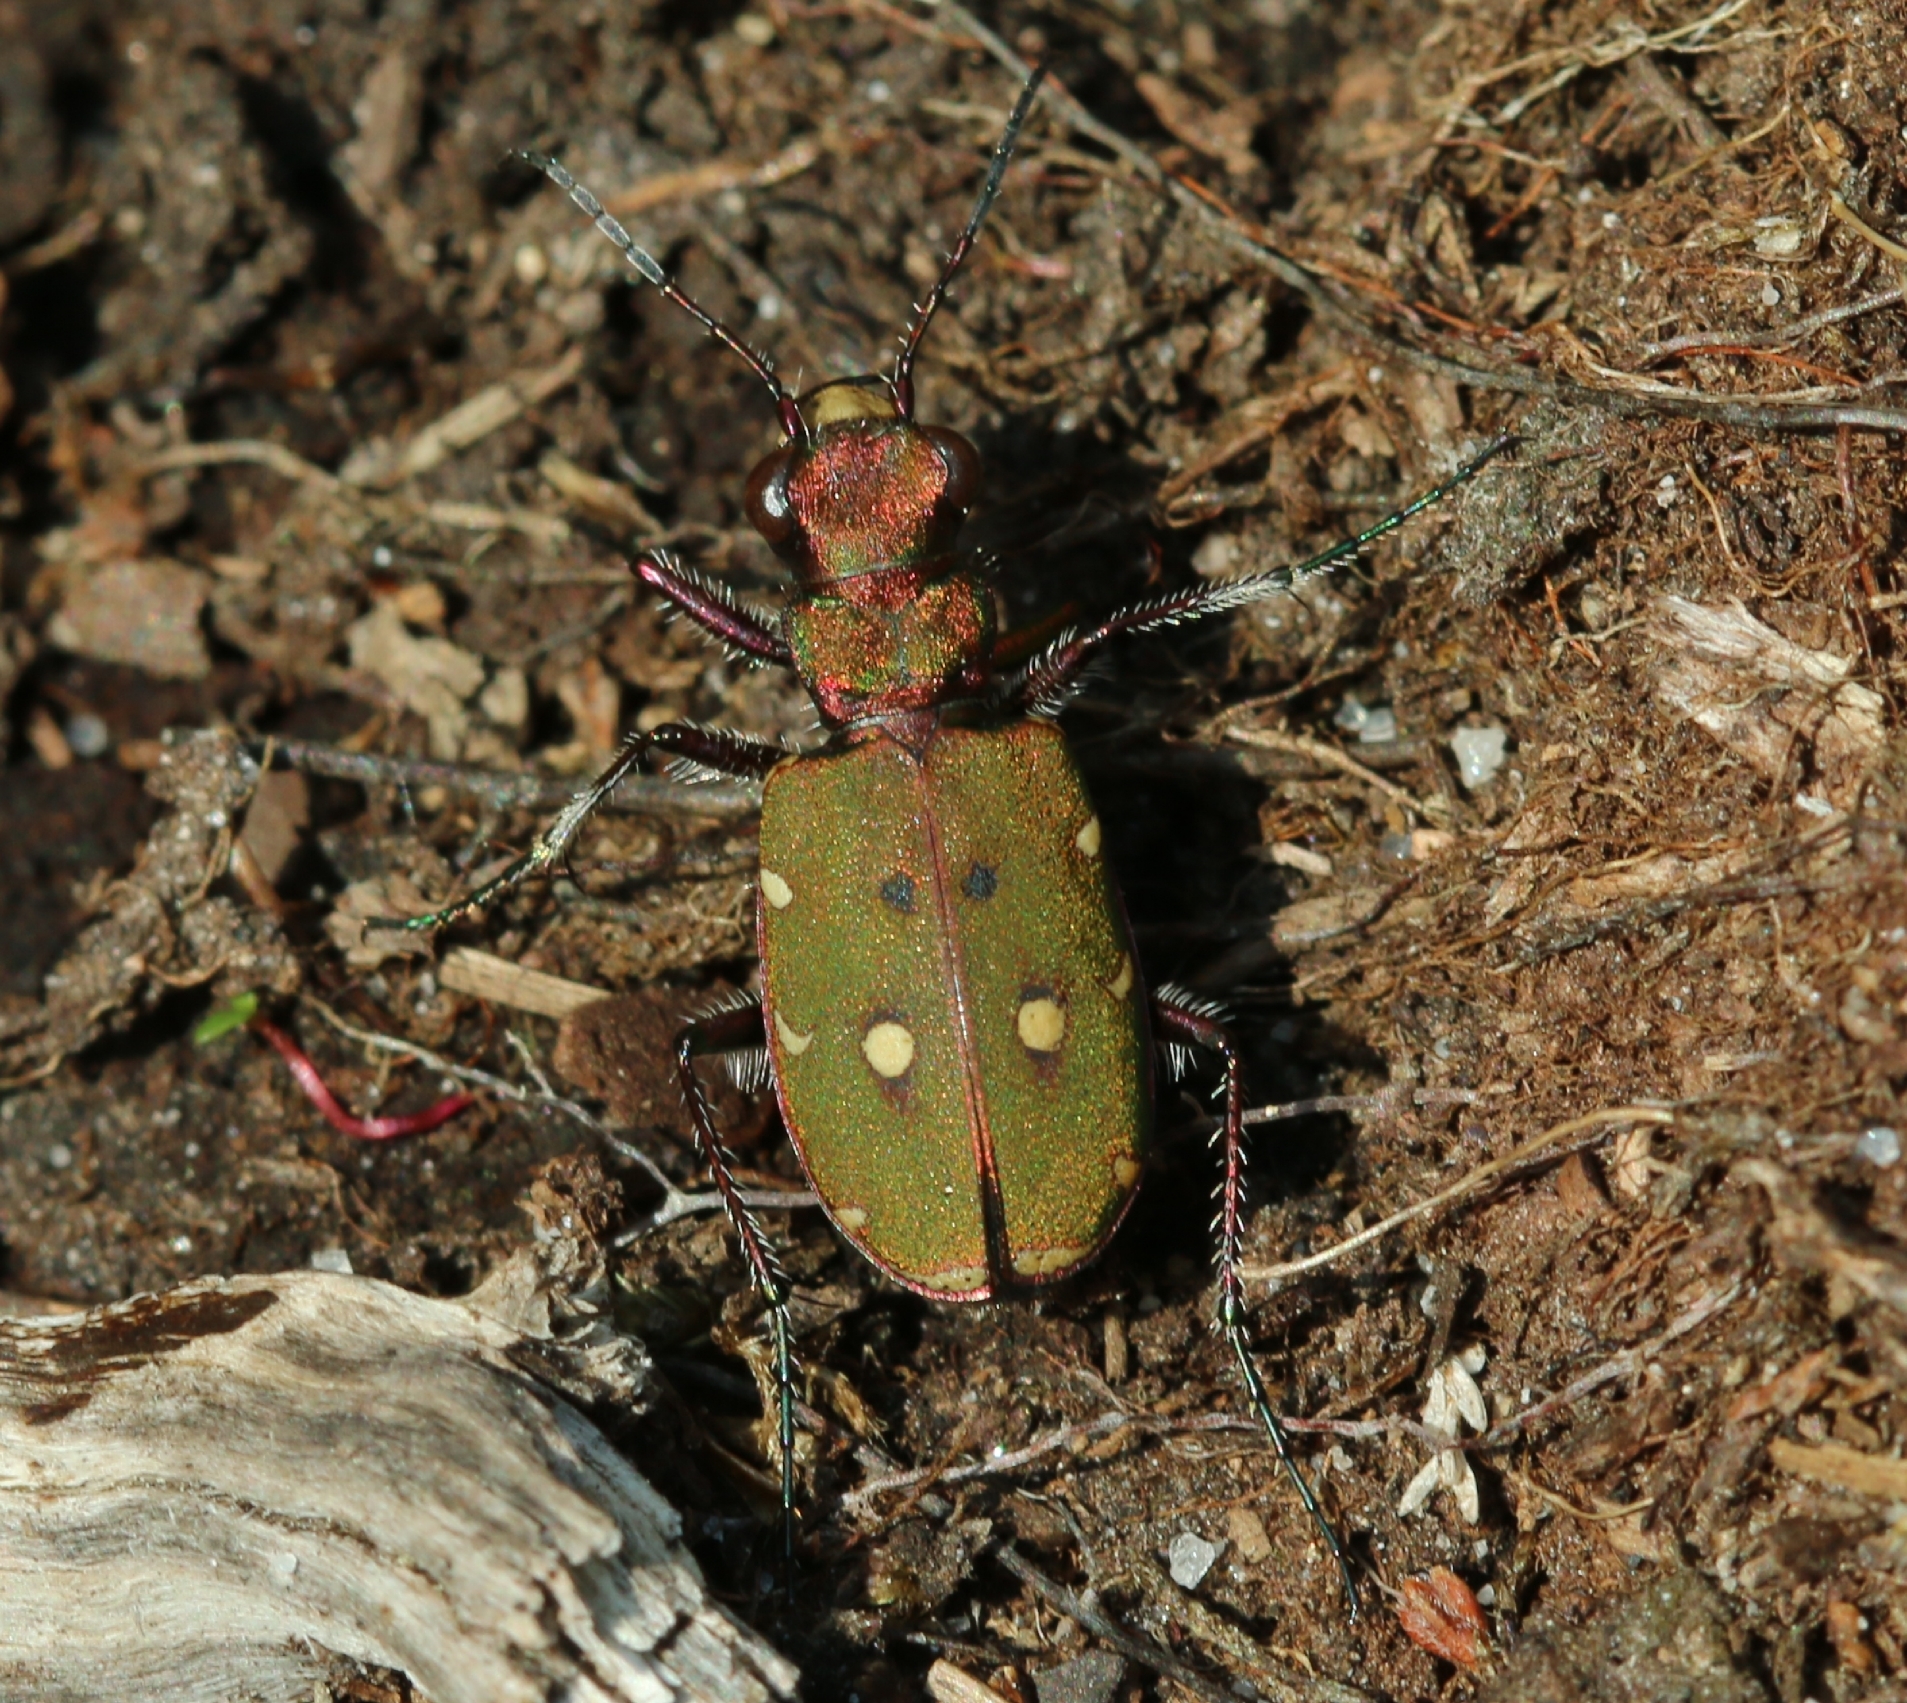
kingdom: Animalia
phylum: Arthropoda
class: Insecta
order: Coleoptera
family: Carabidae
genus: Cicindela
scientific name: Cicindela campestris
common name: Common tiger beetle
